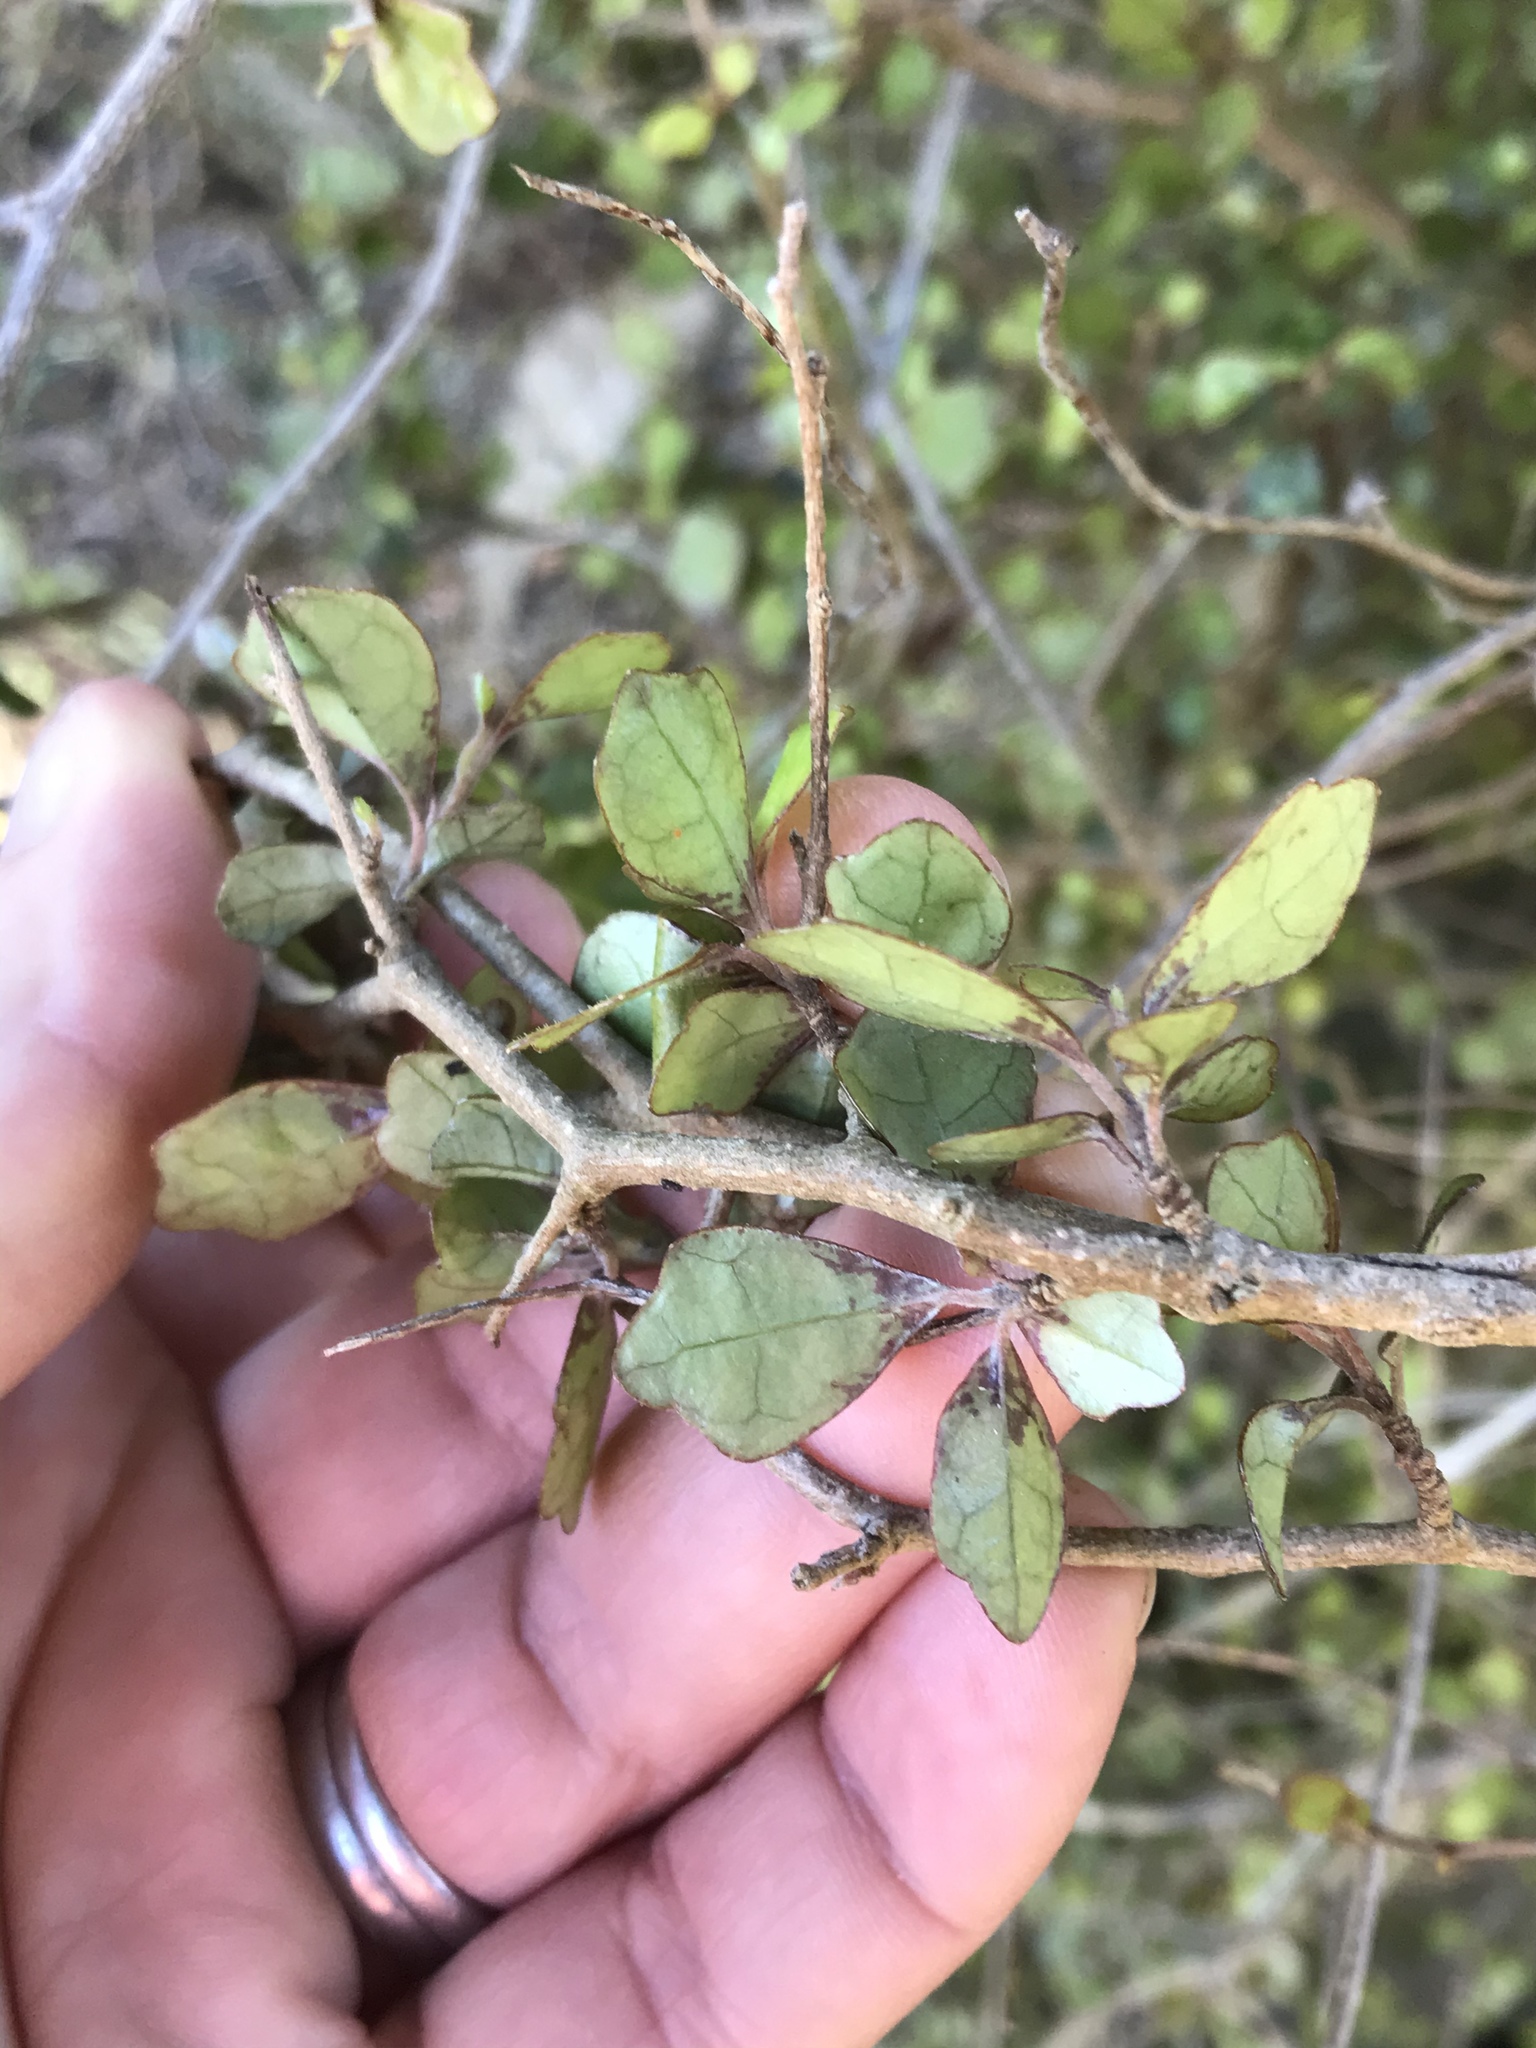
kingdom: Plantae
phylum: Tracheophyta
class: Magnoliopsida
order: Apiales
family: Pennantiaceae
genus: Pennantia
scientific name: Pennantia corymbosa
